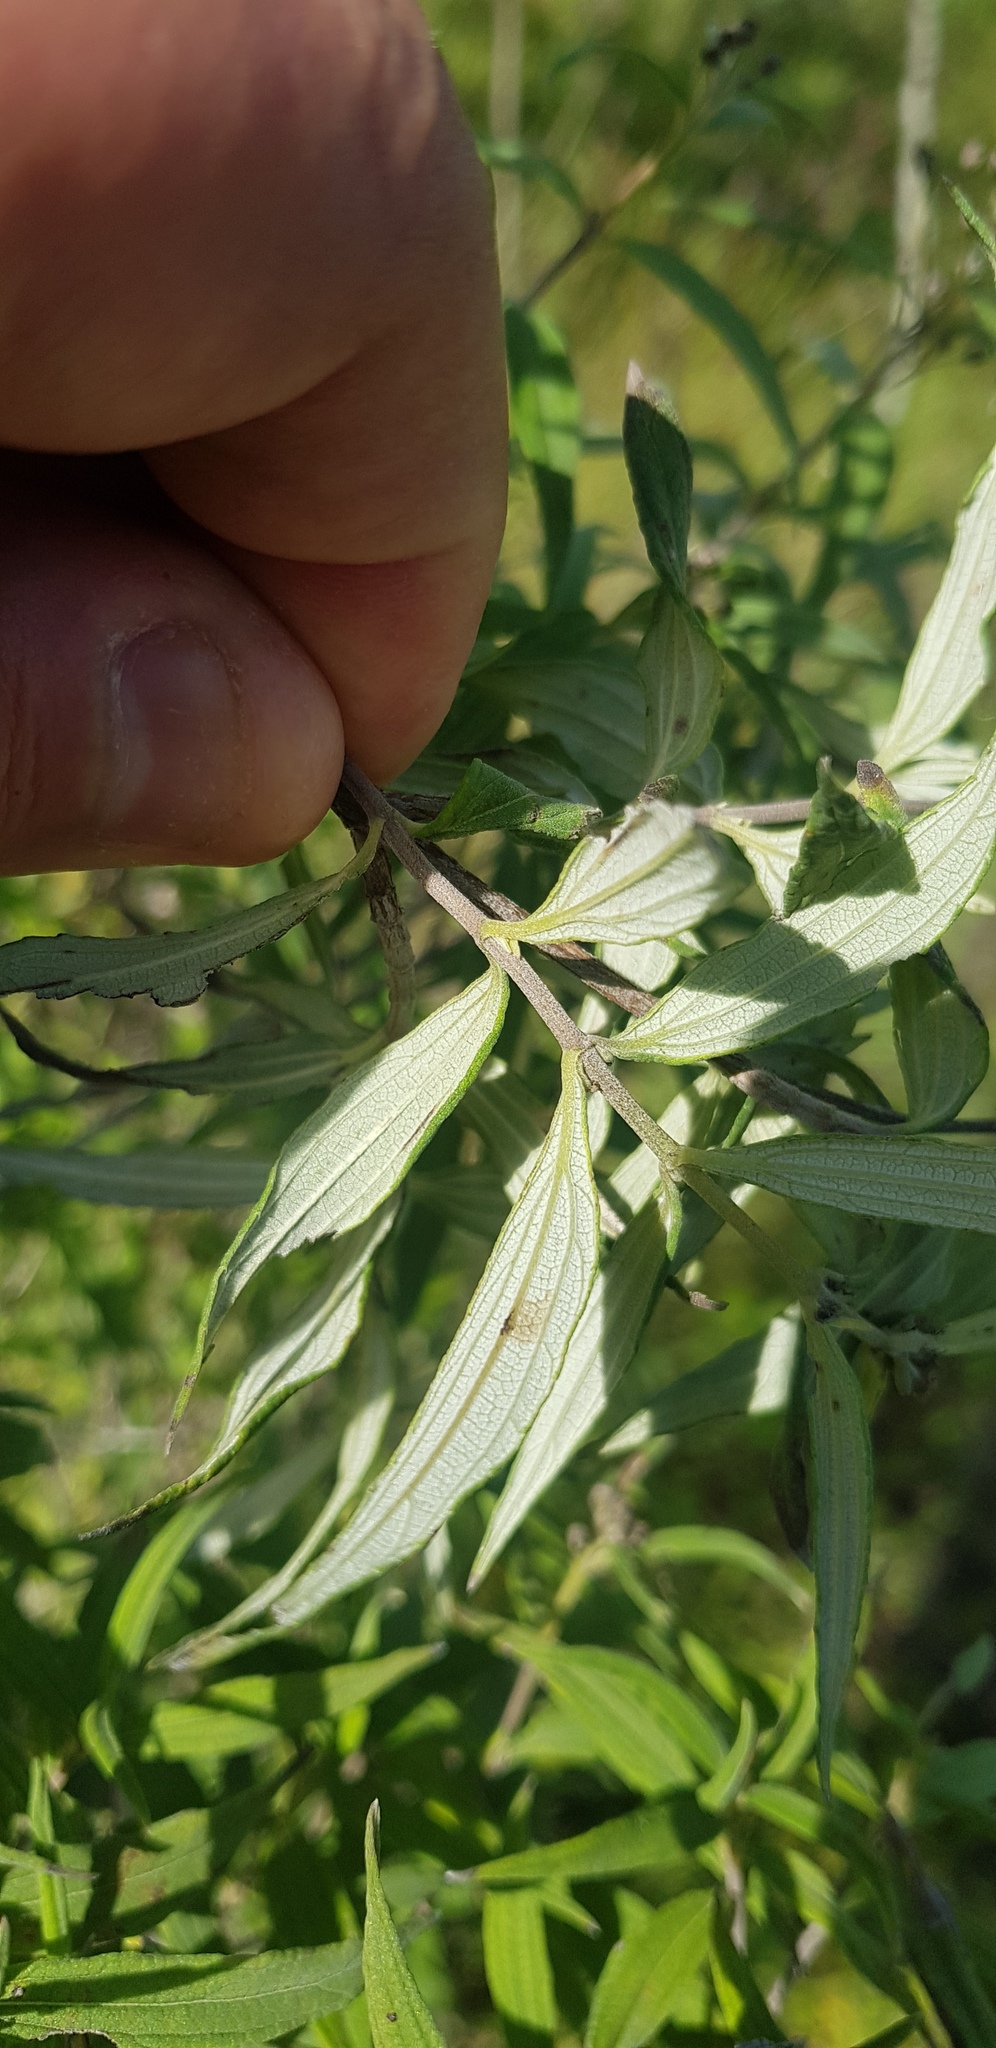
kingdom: Plantae
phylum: Tracheophyta
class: Magnoliopsida
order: Asterales
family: Asteraceae
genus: Perymenium
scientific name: Perymenium discolor
